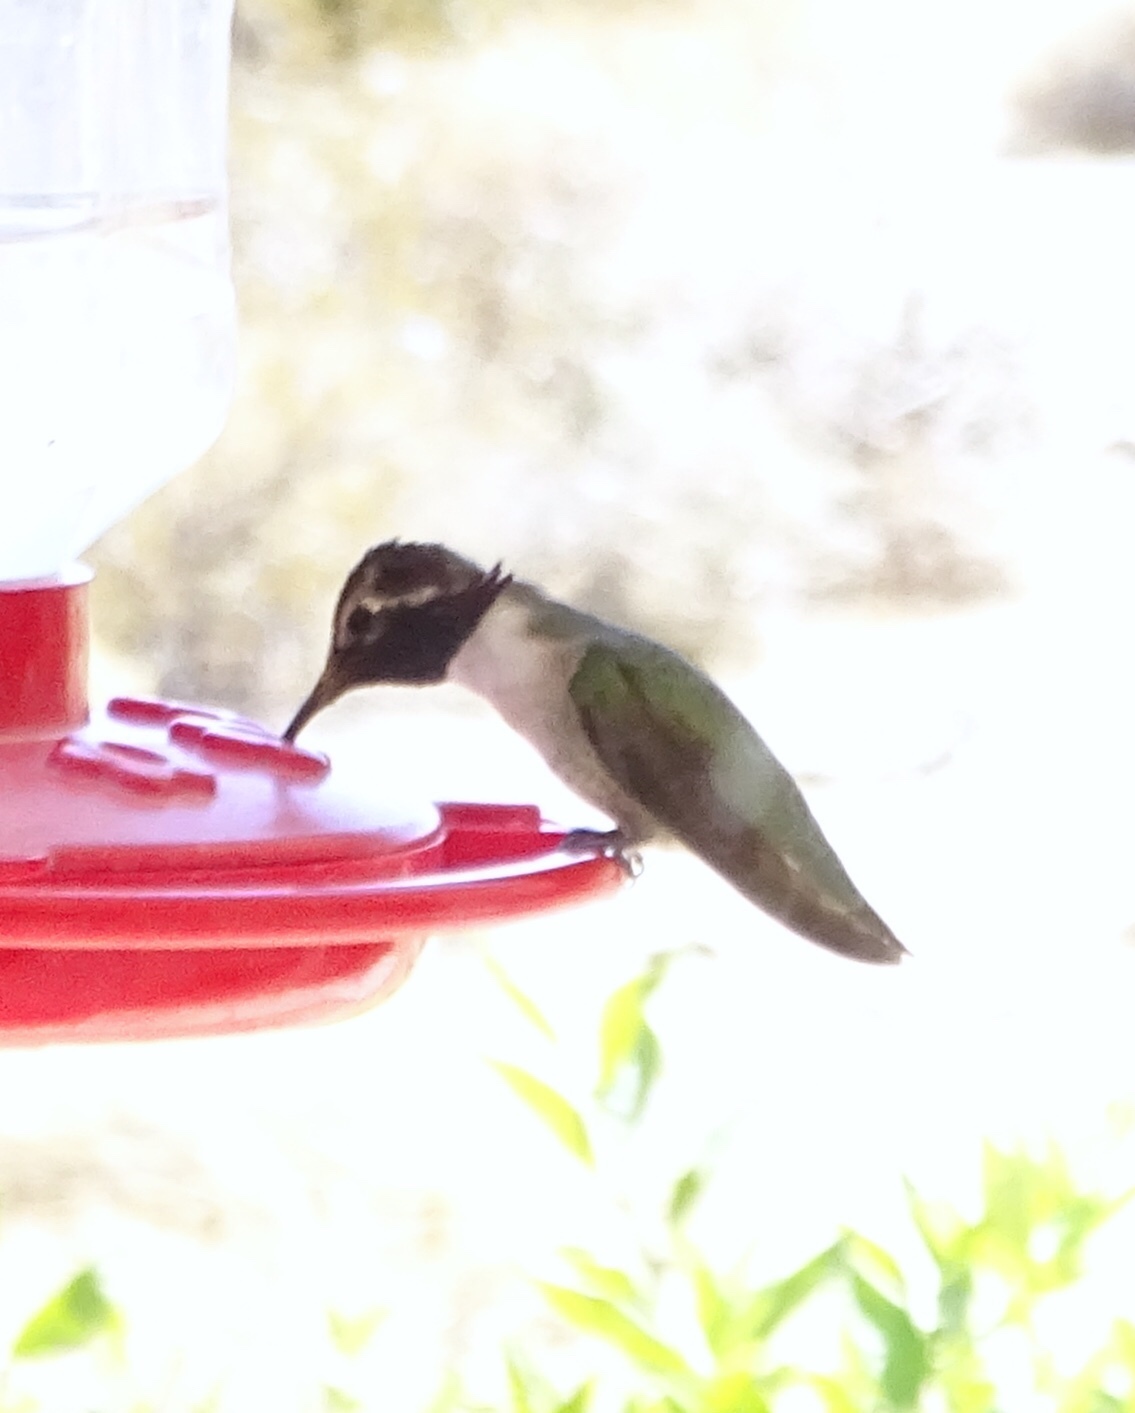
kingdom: Animalia
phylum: Chordata
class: Aves
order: Apodiformes
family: Trochilidae
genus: Calypte
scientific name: Calypte costae
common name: Costa's hummingbird
